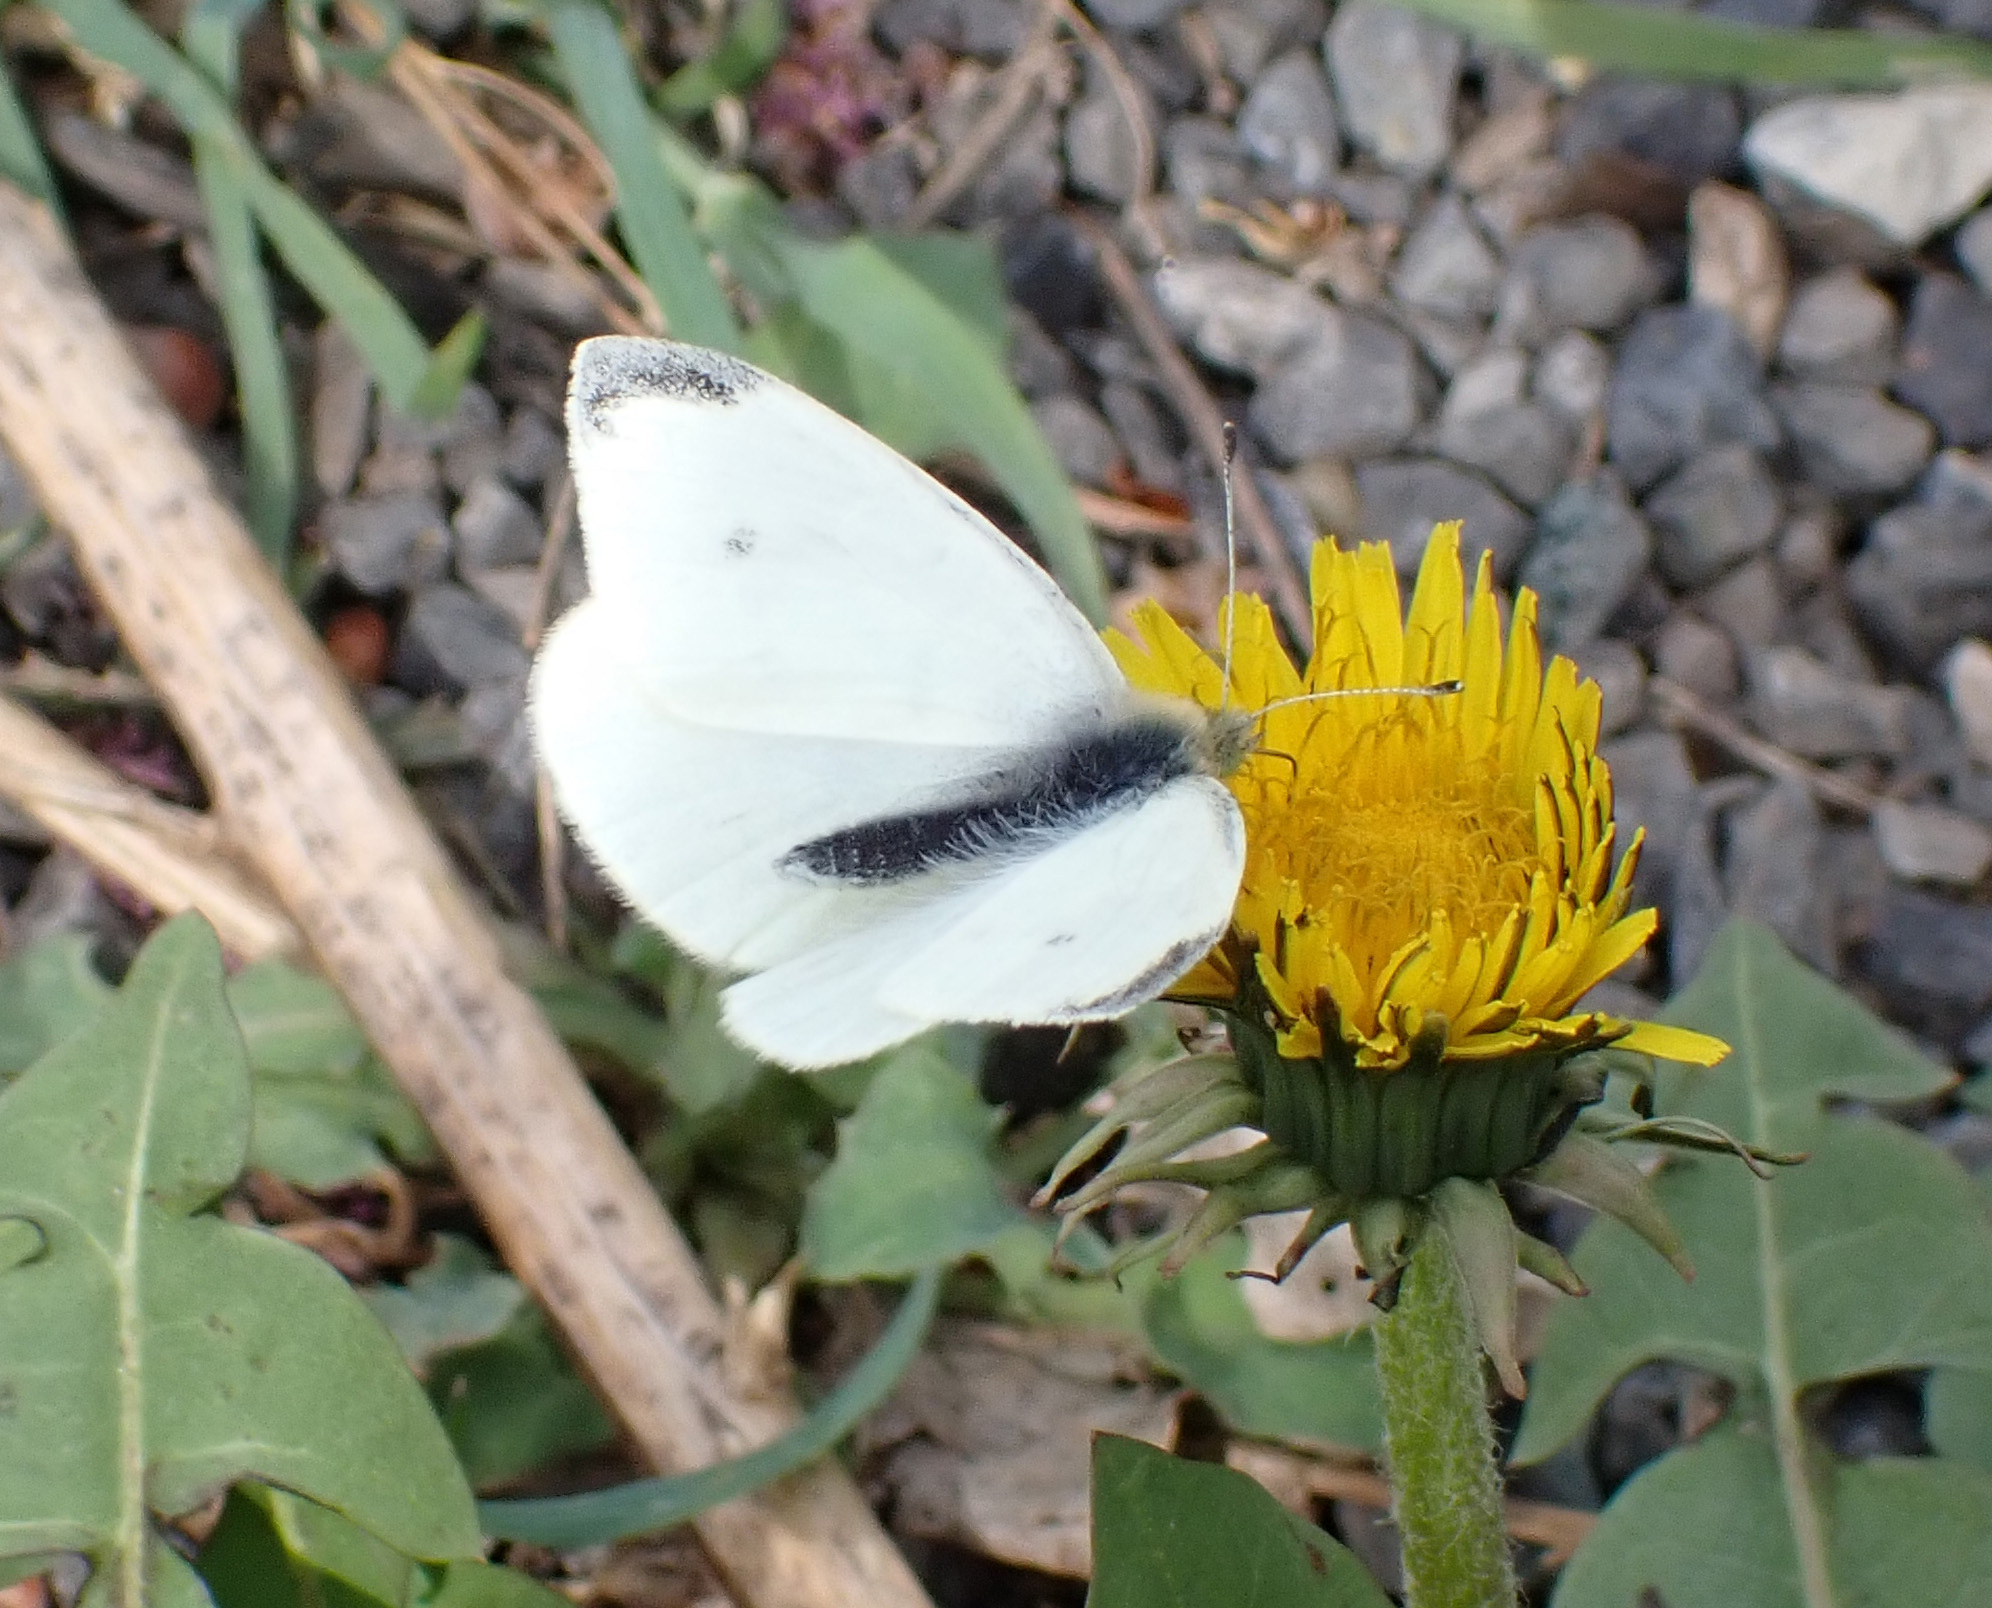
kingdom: Animalia
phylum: Arthropoda
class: Insecta
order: Lepidoptera
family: Pieridae
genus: Pieris
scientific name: Pieris rapae
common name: Small white
